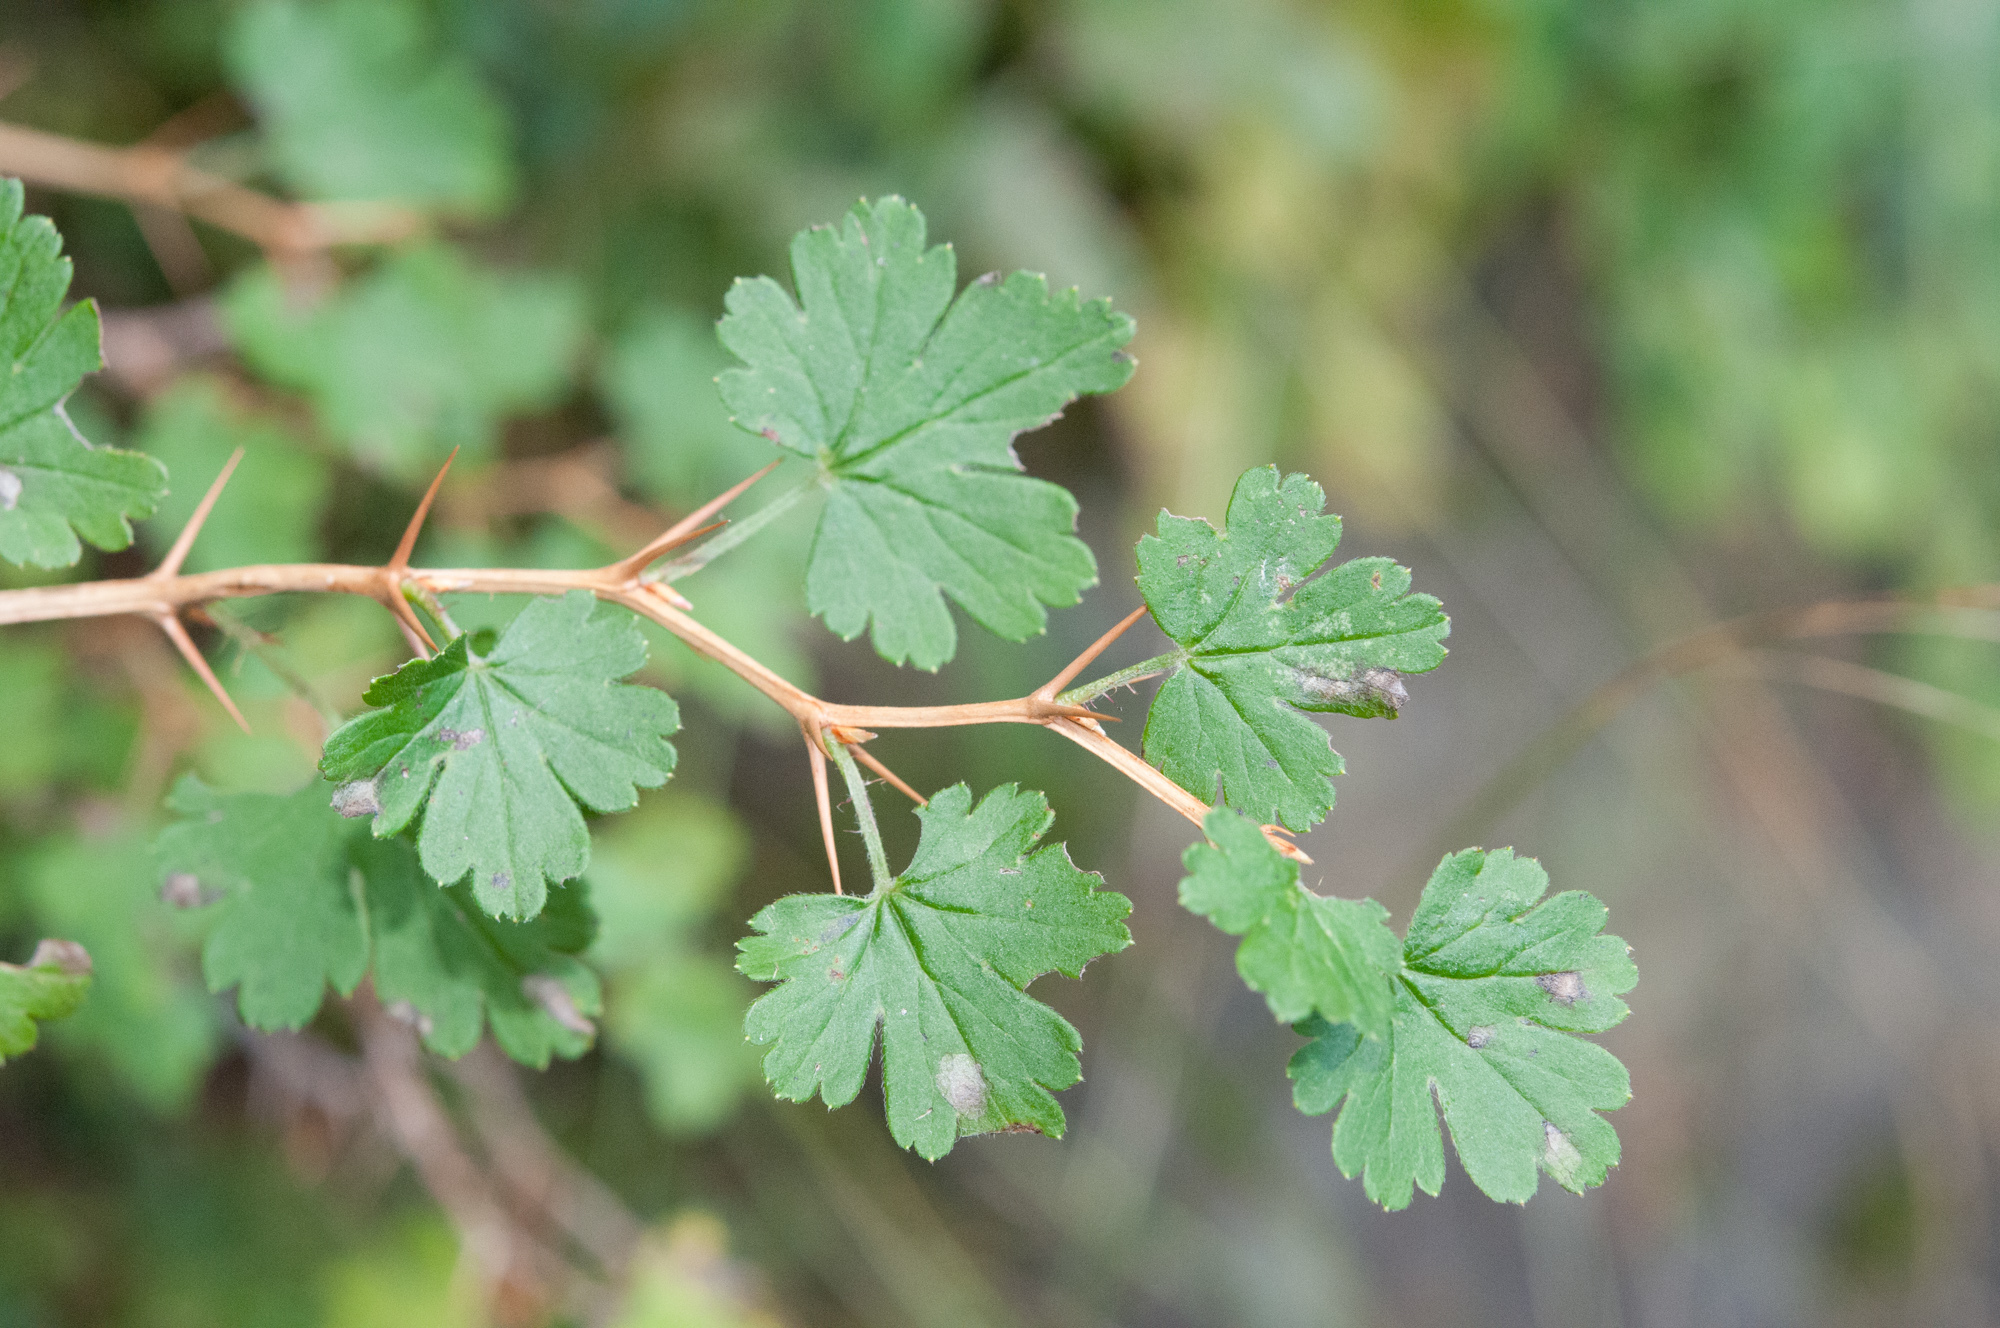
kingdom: Plantae
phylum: Tracheophyta
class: Magnoliopsida
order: Saxifragales
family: Grossulariaceae
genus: Ribes
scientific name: Ribes formosanum
